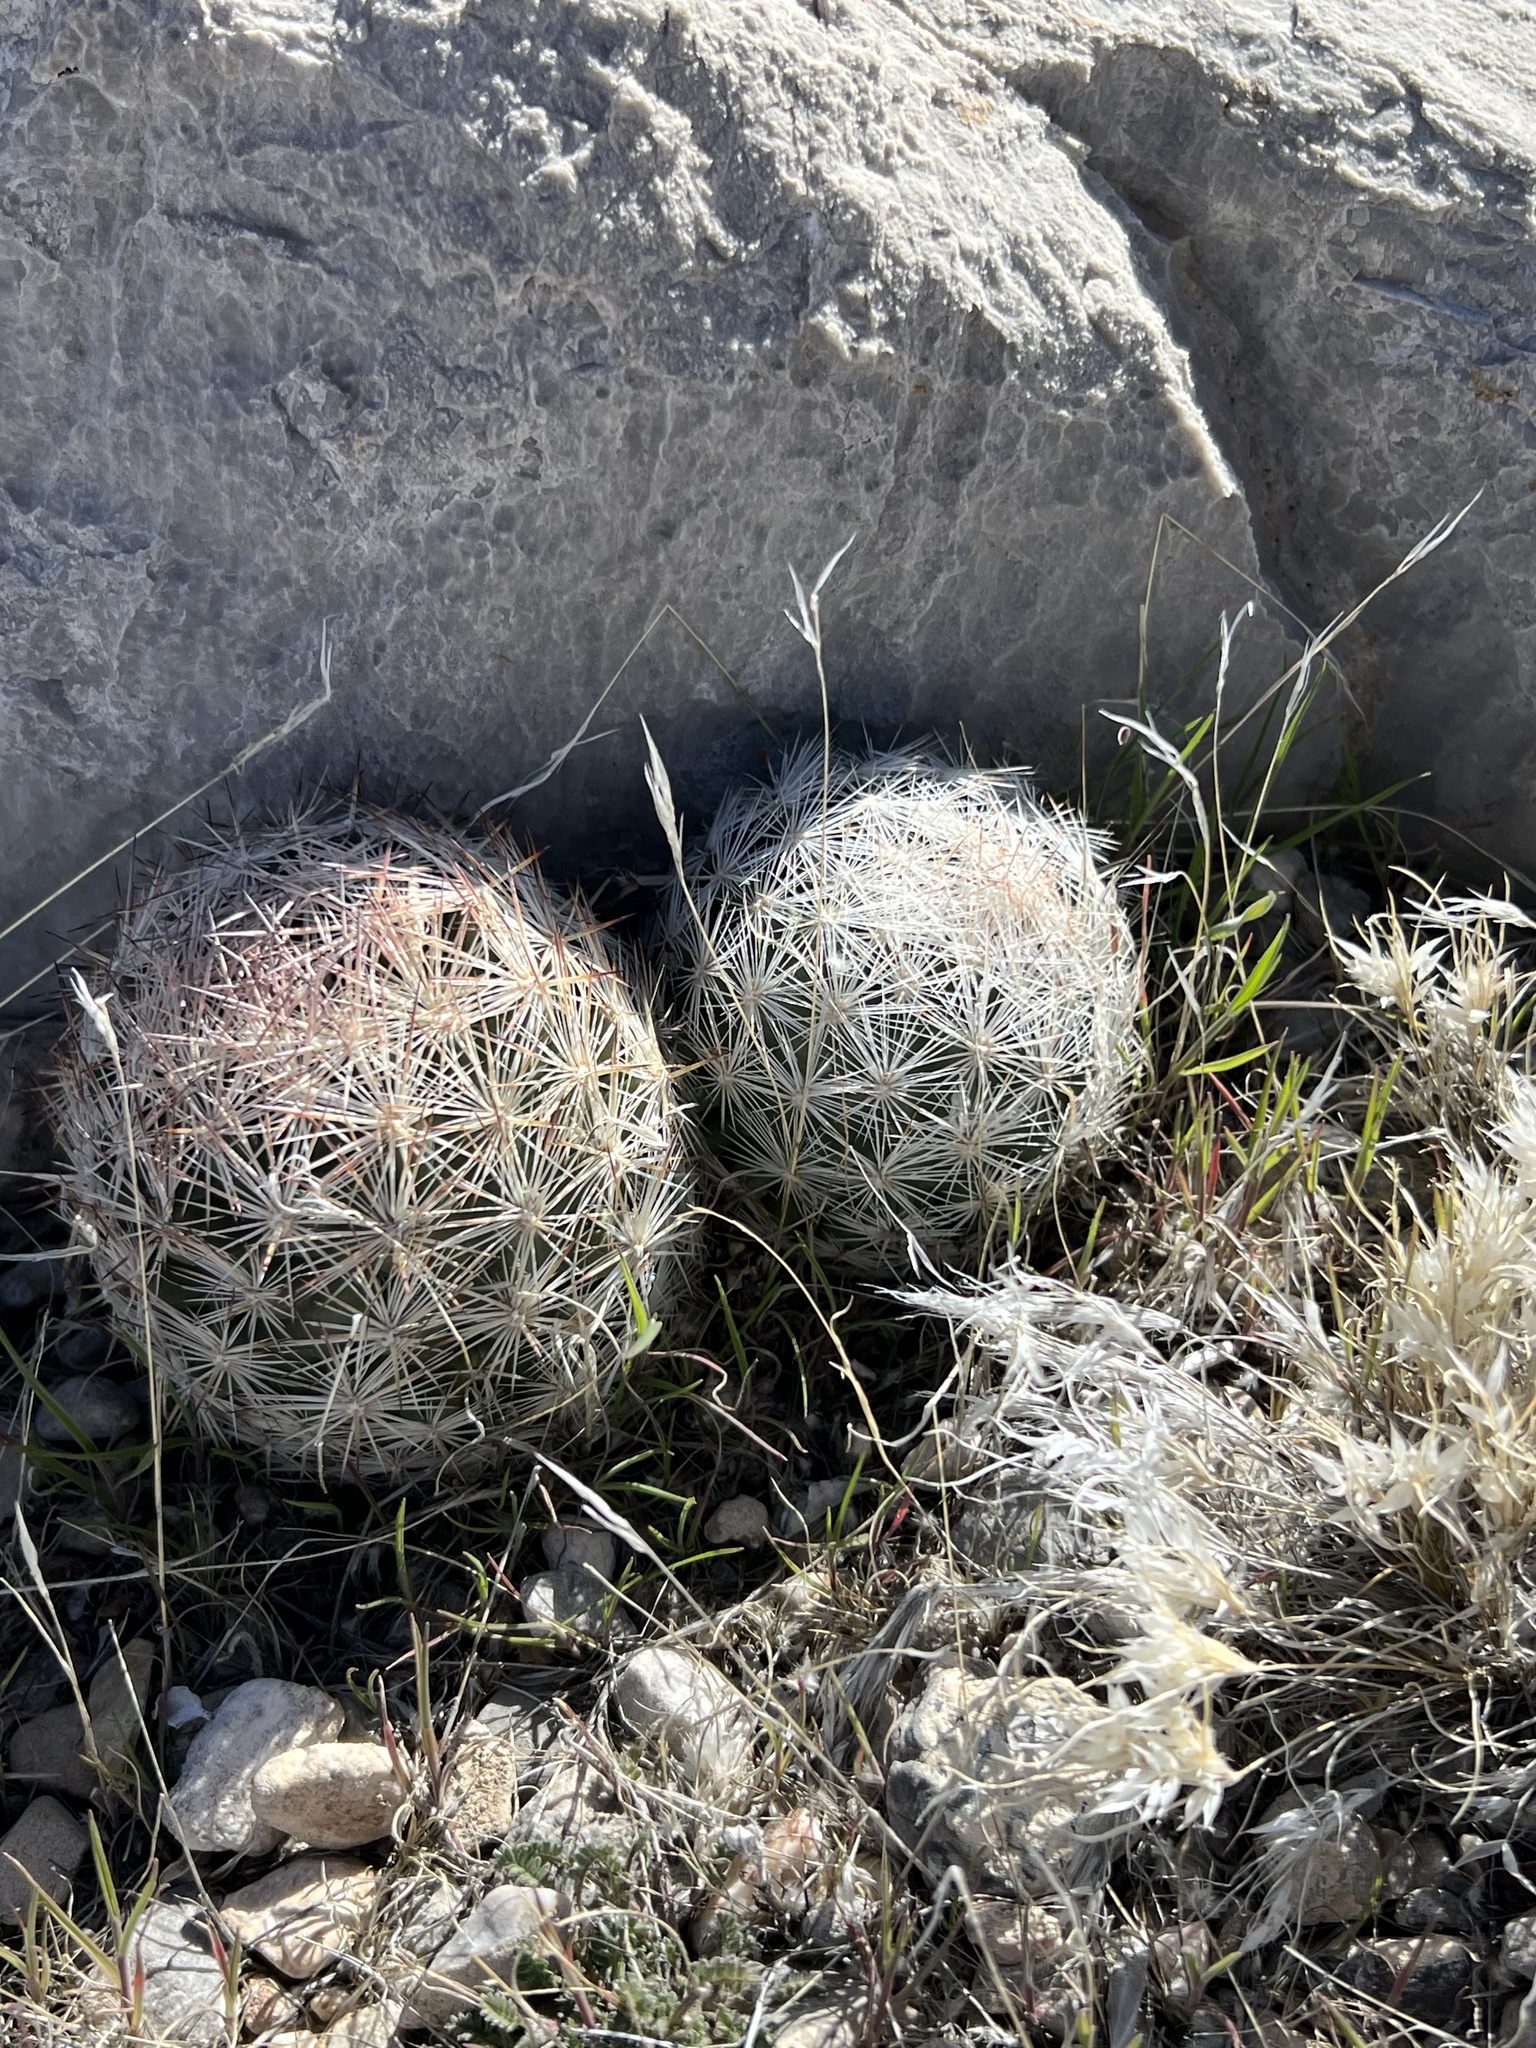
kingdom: Plantae
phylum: Tracheophyta
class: Magnoliopsida
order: Caryophyllales
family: Cactaceae
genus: Pelecyphora
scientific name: Pelecyphora dasyacantha
